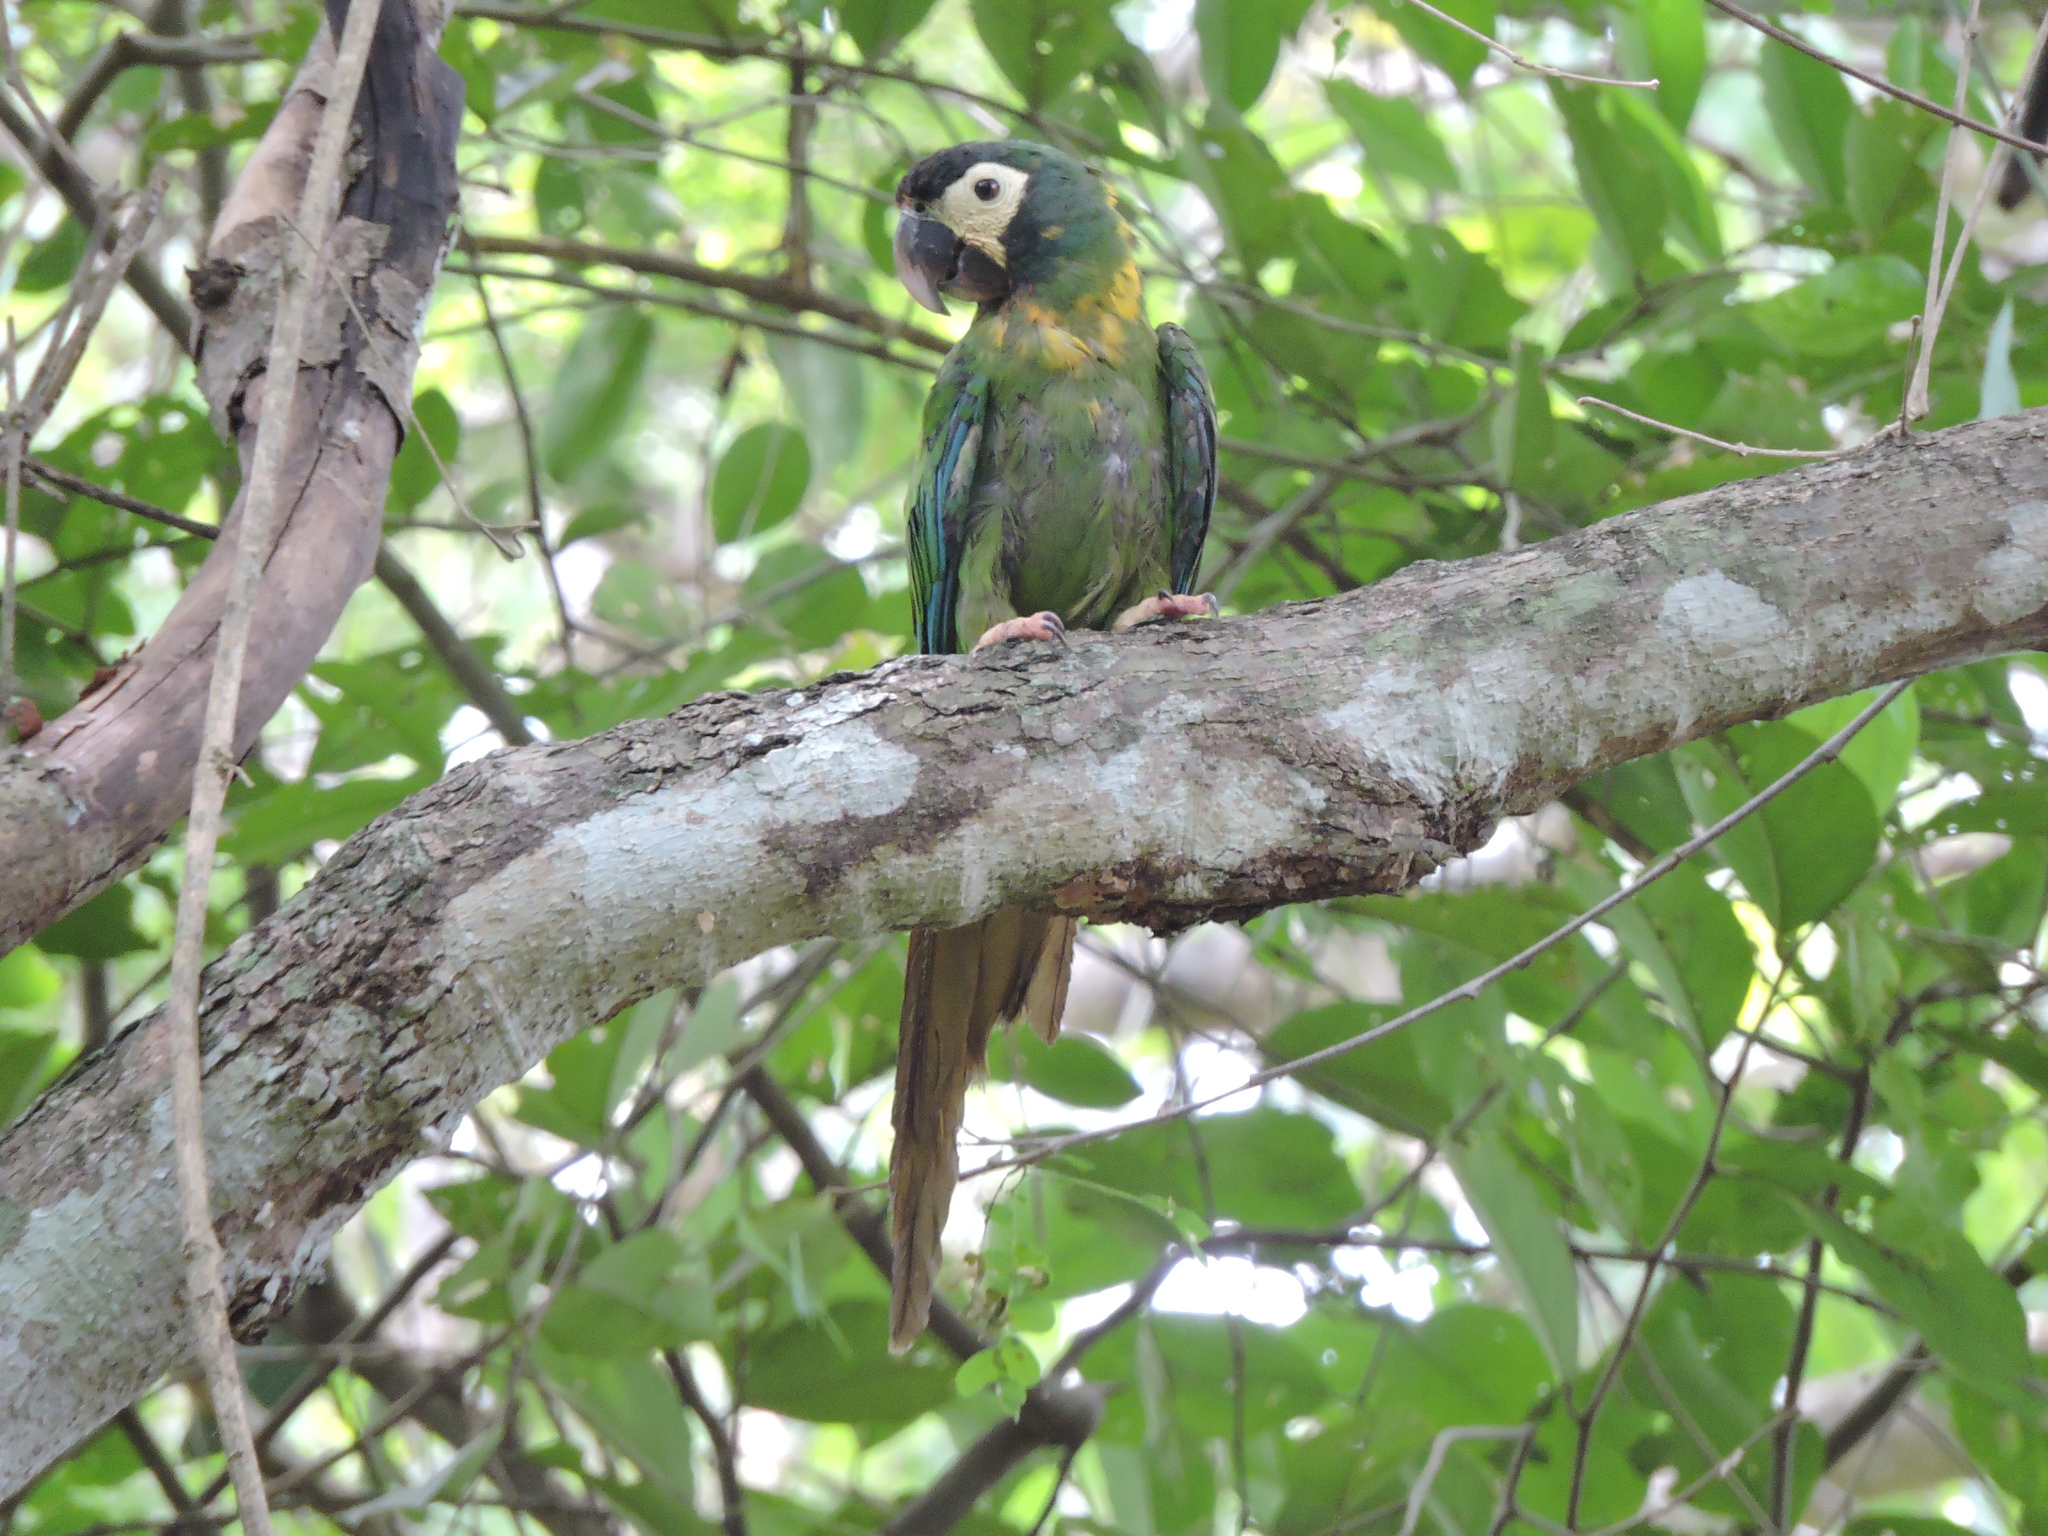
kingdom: Animalia
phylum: Chordata
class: Aves
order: Psittaciformes
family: Psittacidae
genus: Primolius
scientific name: Primolius auricollis
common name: Golden-collared macaw
